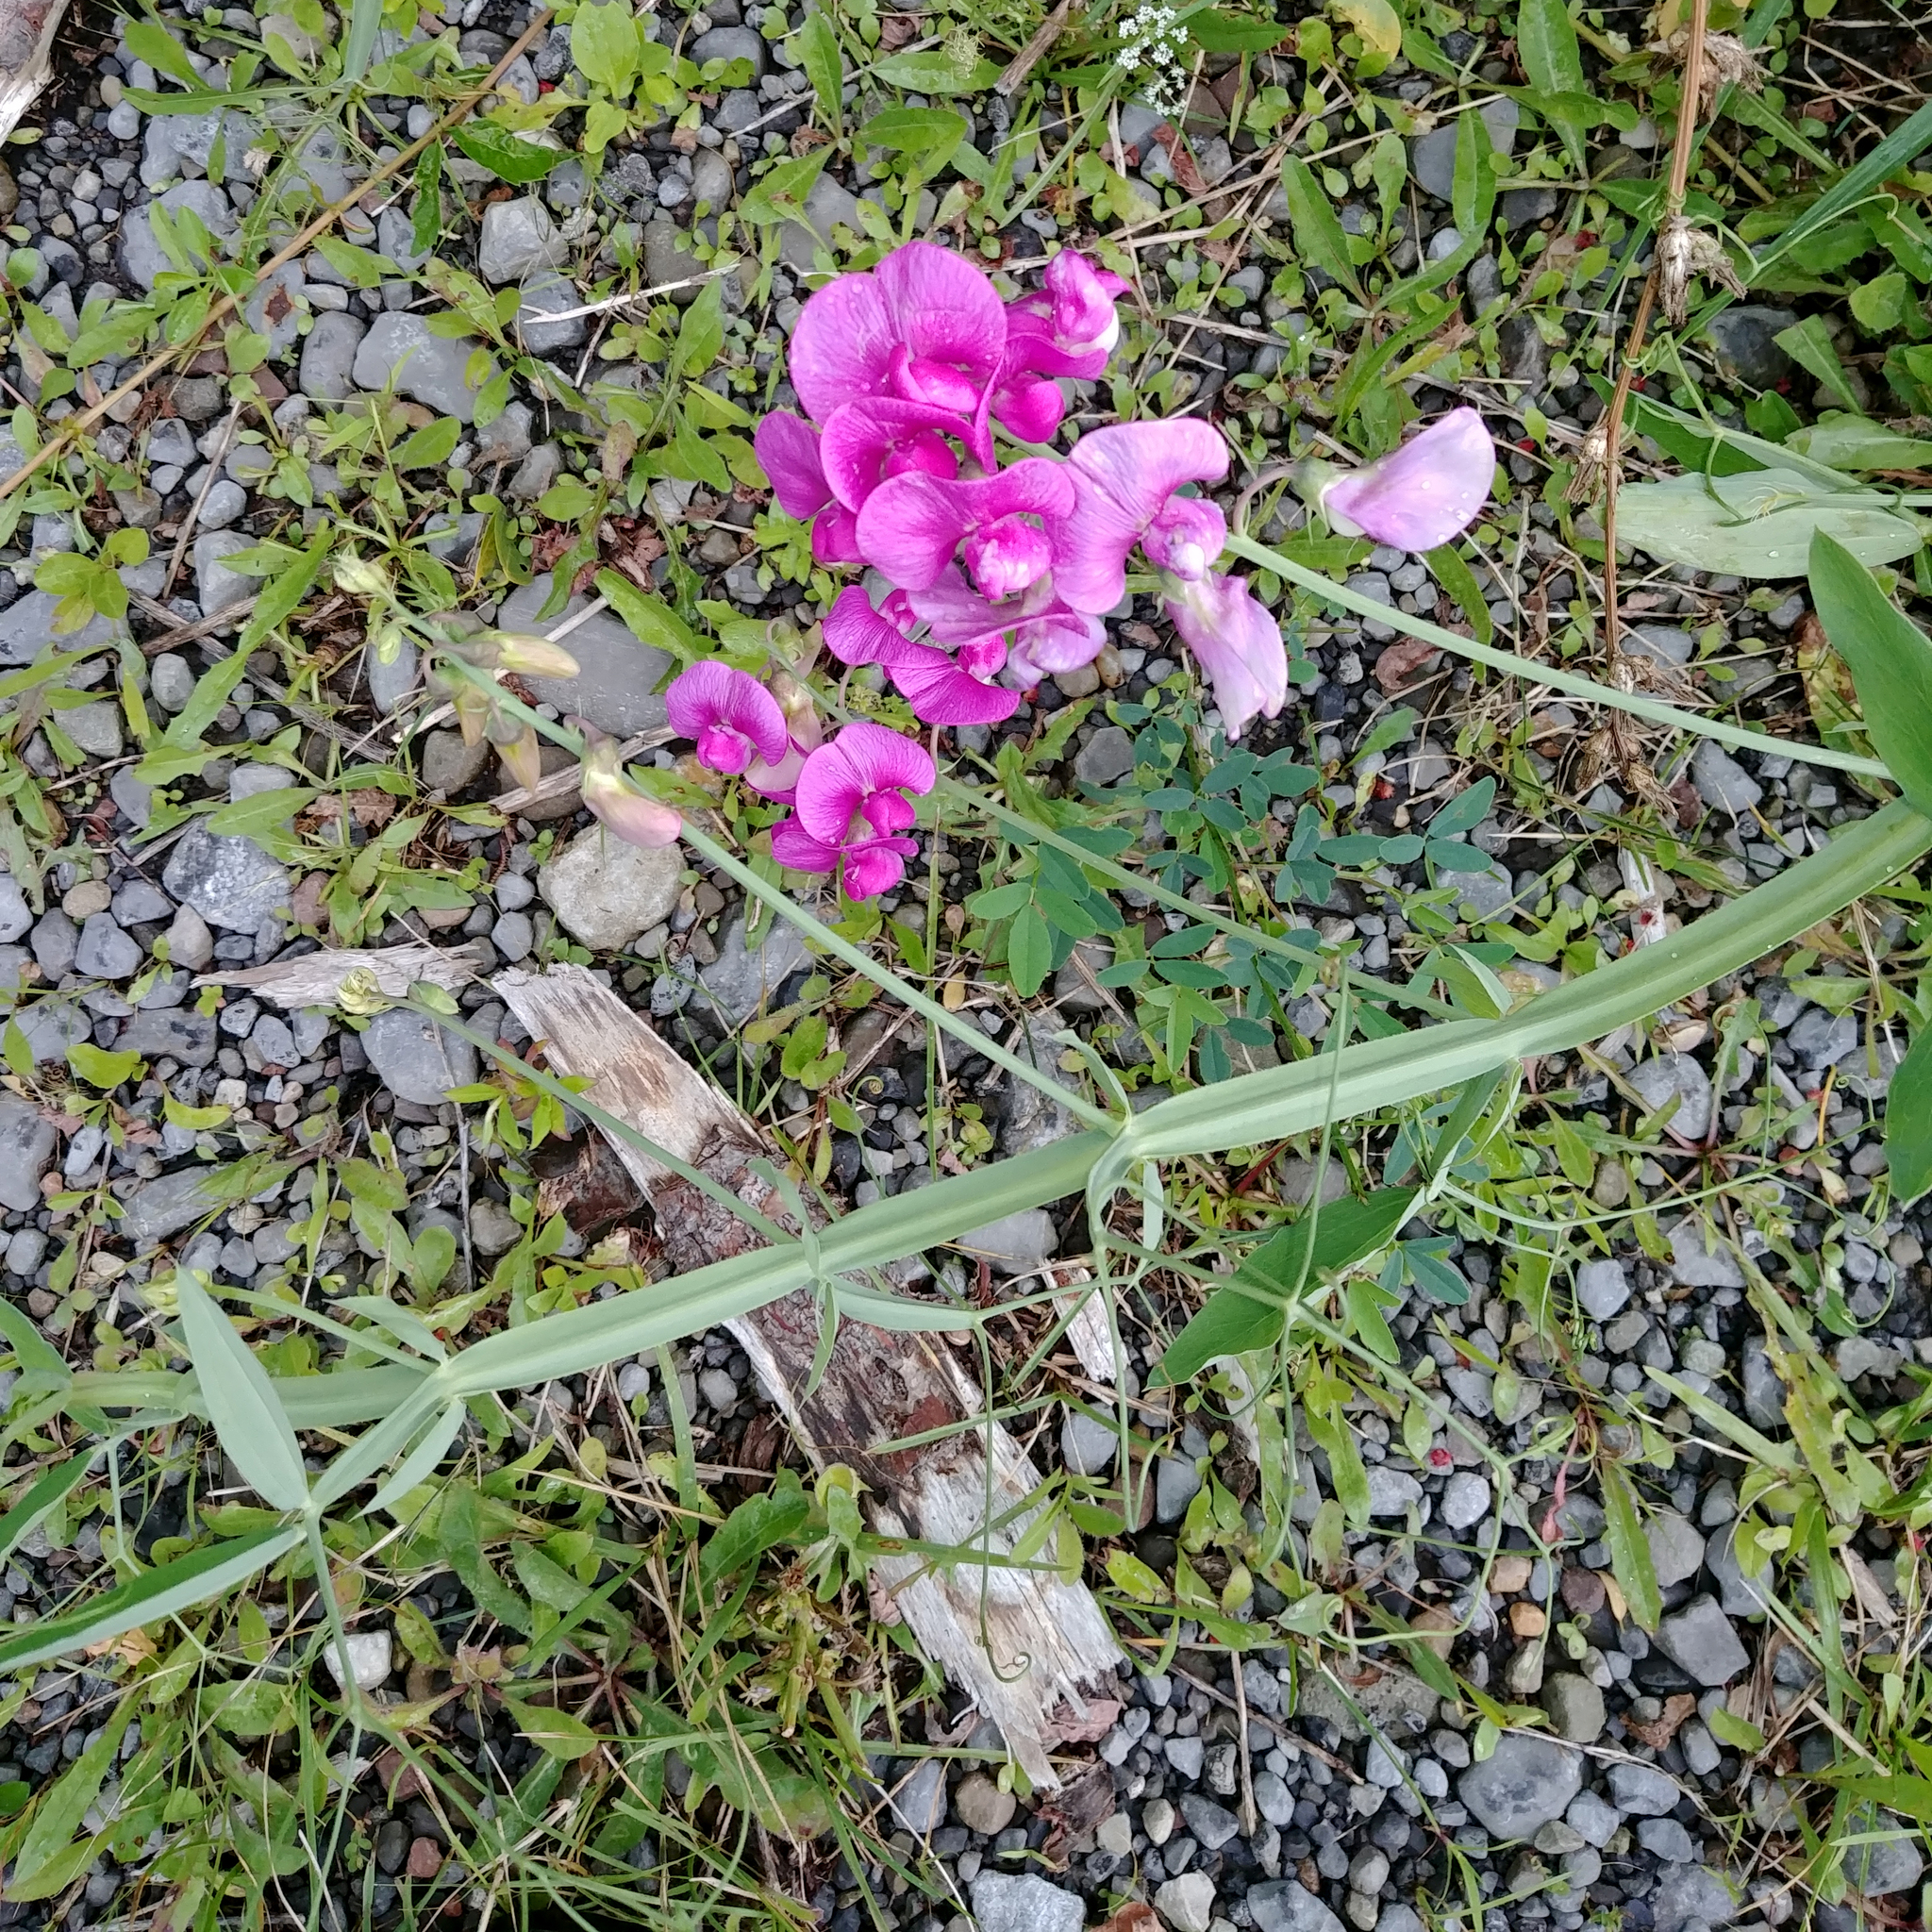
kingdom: Plantae
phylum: Tracheophyta
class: Magnoliopsida
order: Fabales
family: Fabaceae
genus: Lathyrus
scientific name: Lathyrus latifolius
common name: Perennial pea
